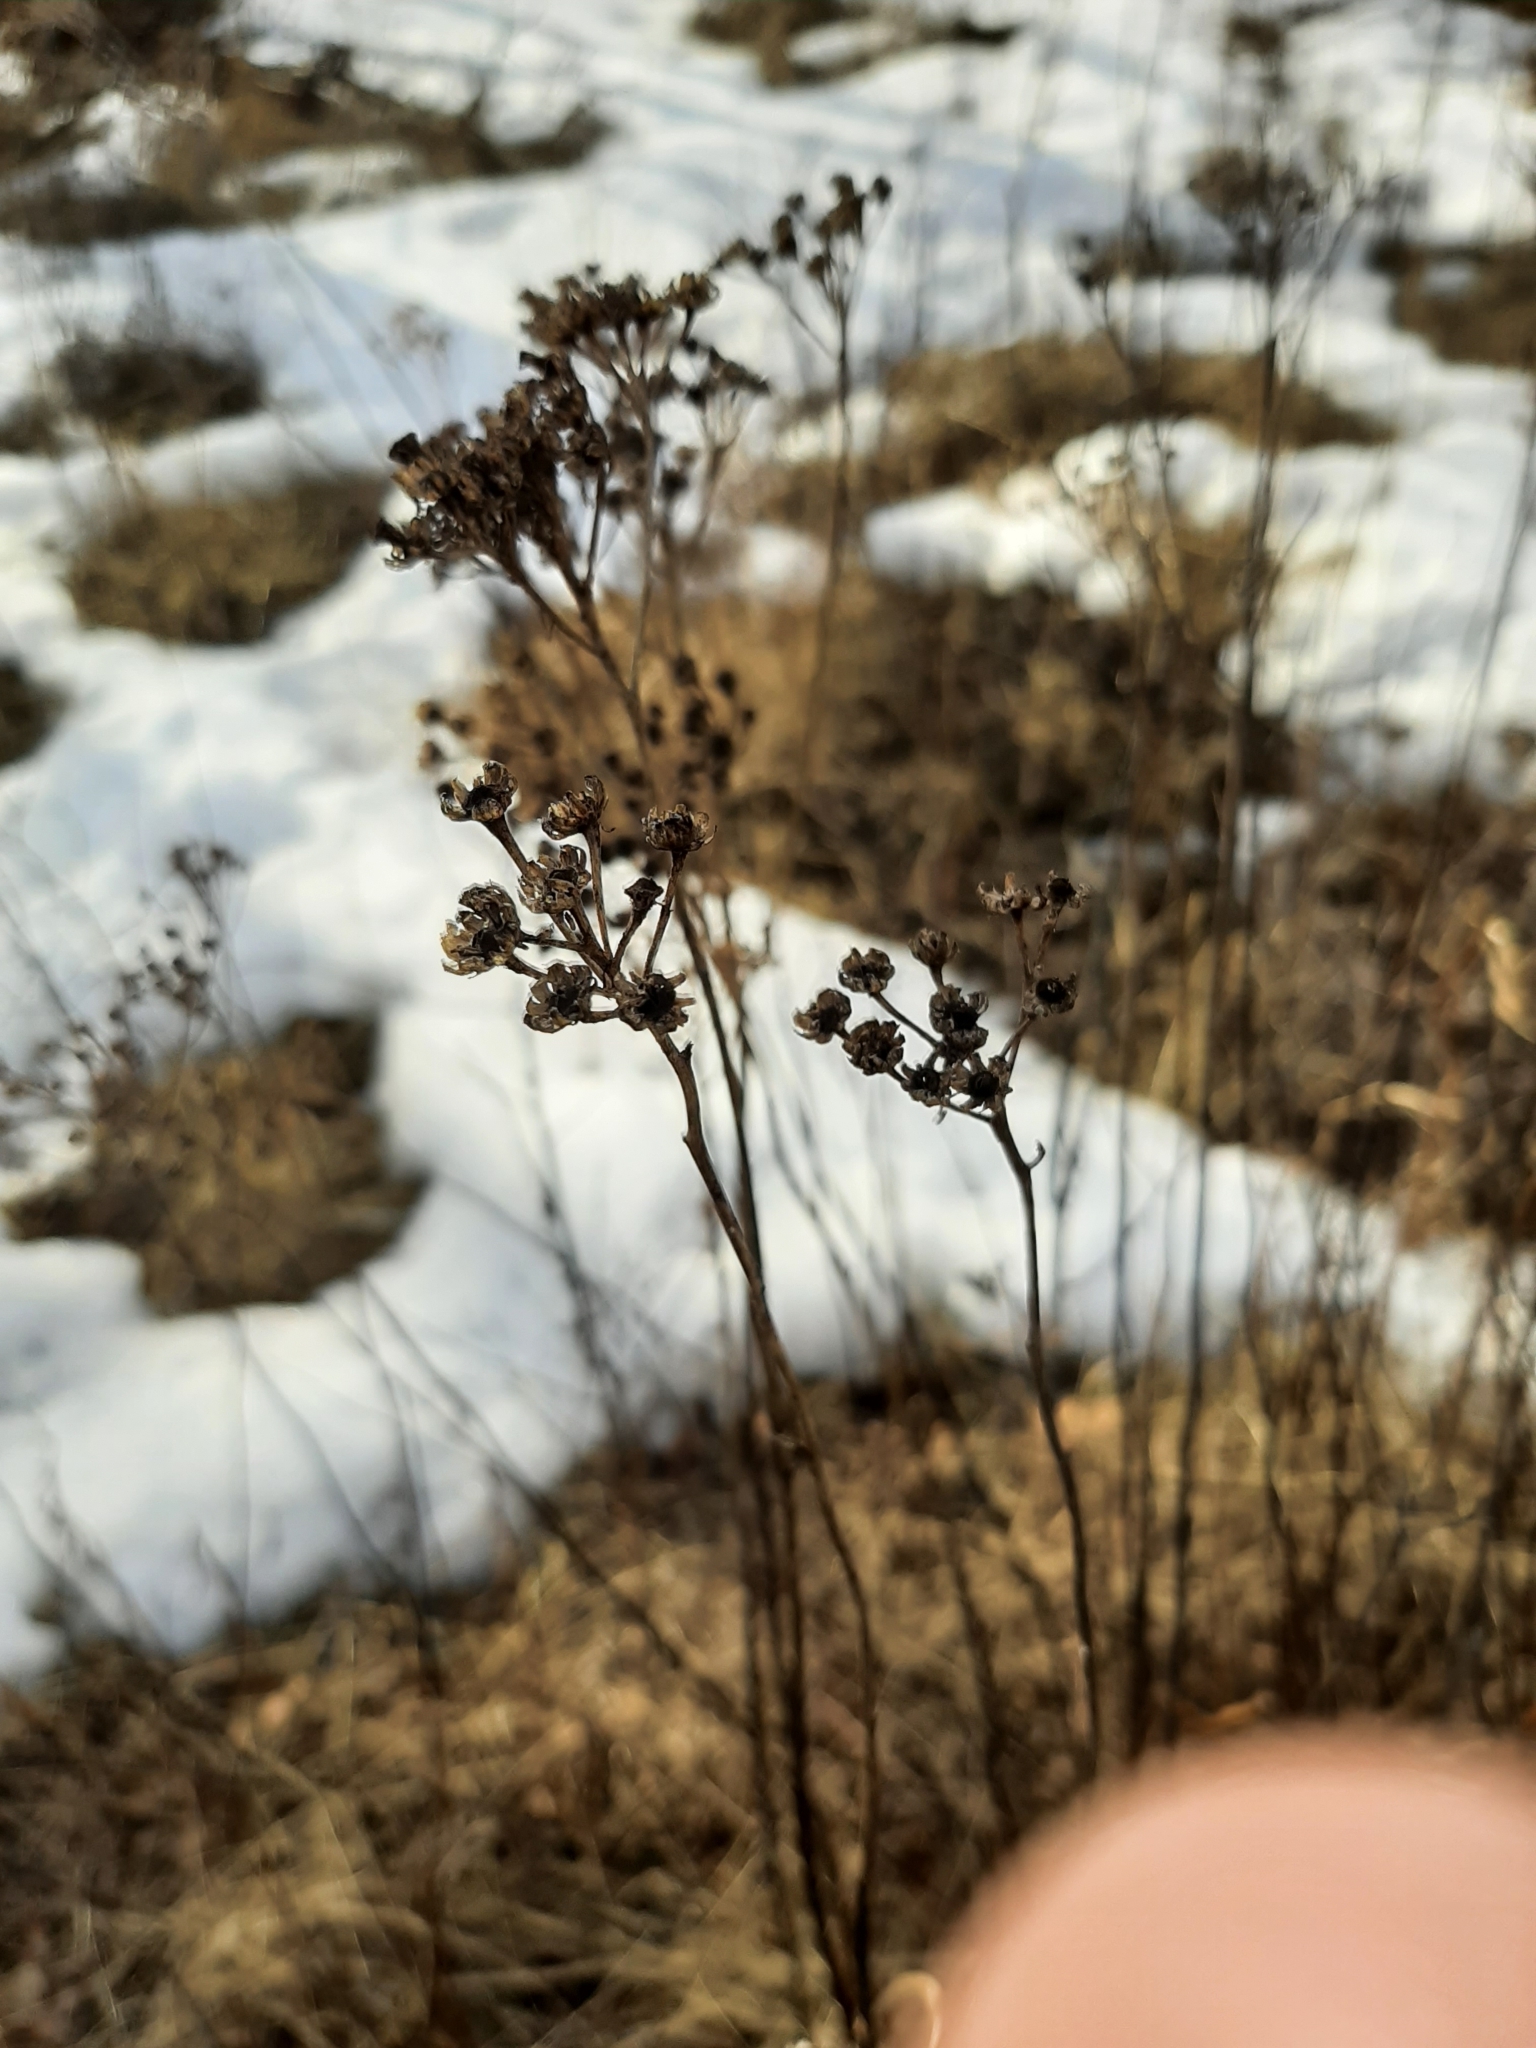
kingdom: Plantae
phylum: Tracheophyta
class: Magnoliopsida
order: Asterales
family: Asteraceae
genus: Tanacetum
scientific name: Tanacetum vulgare
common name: Common tansy
